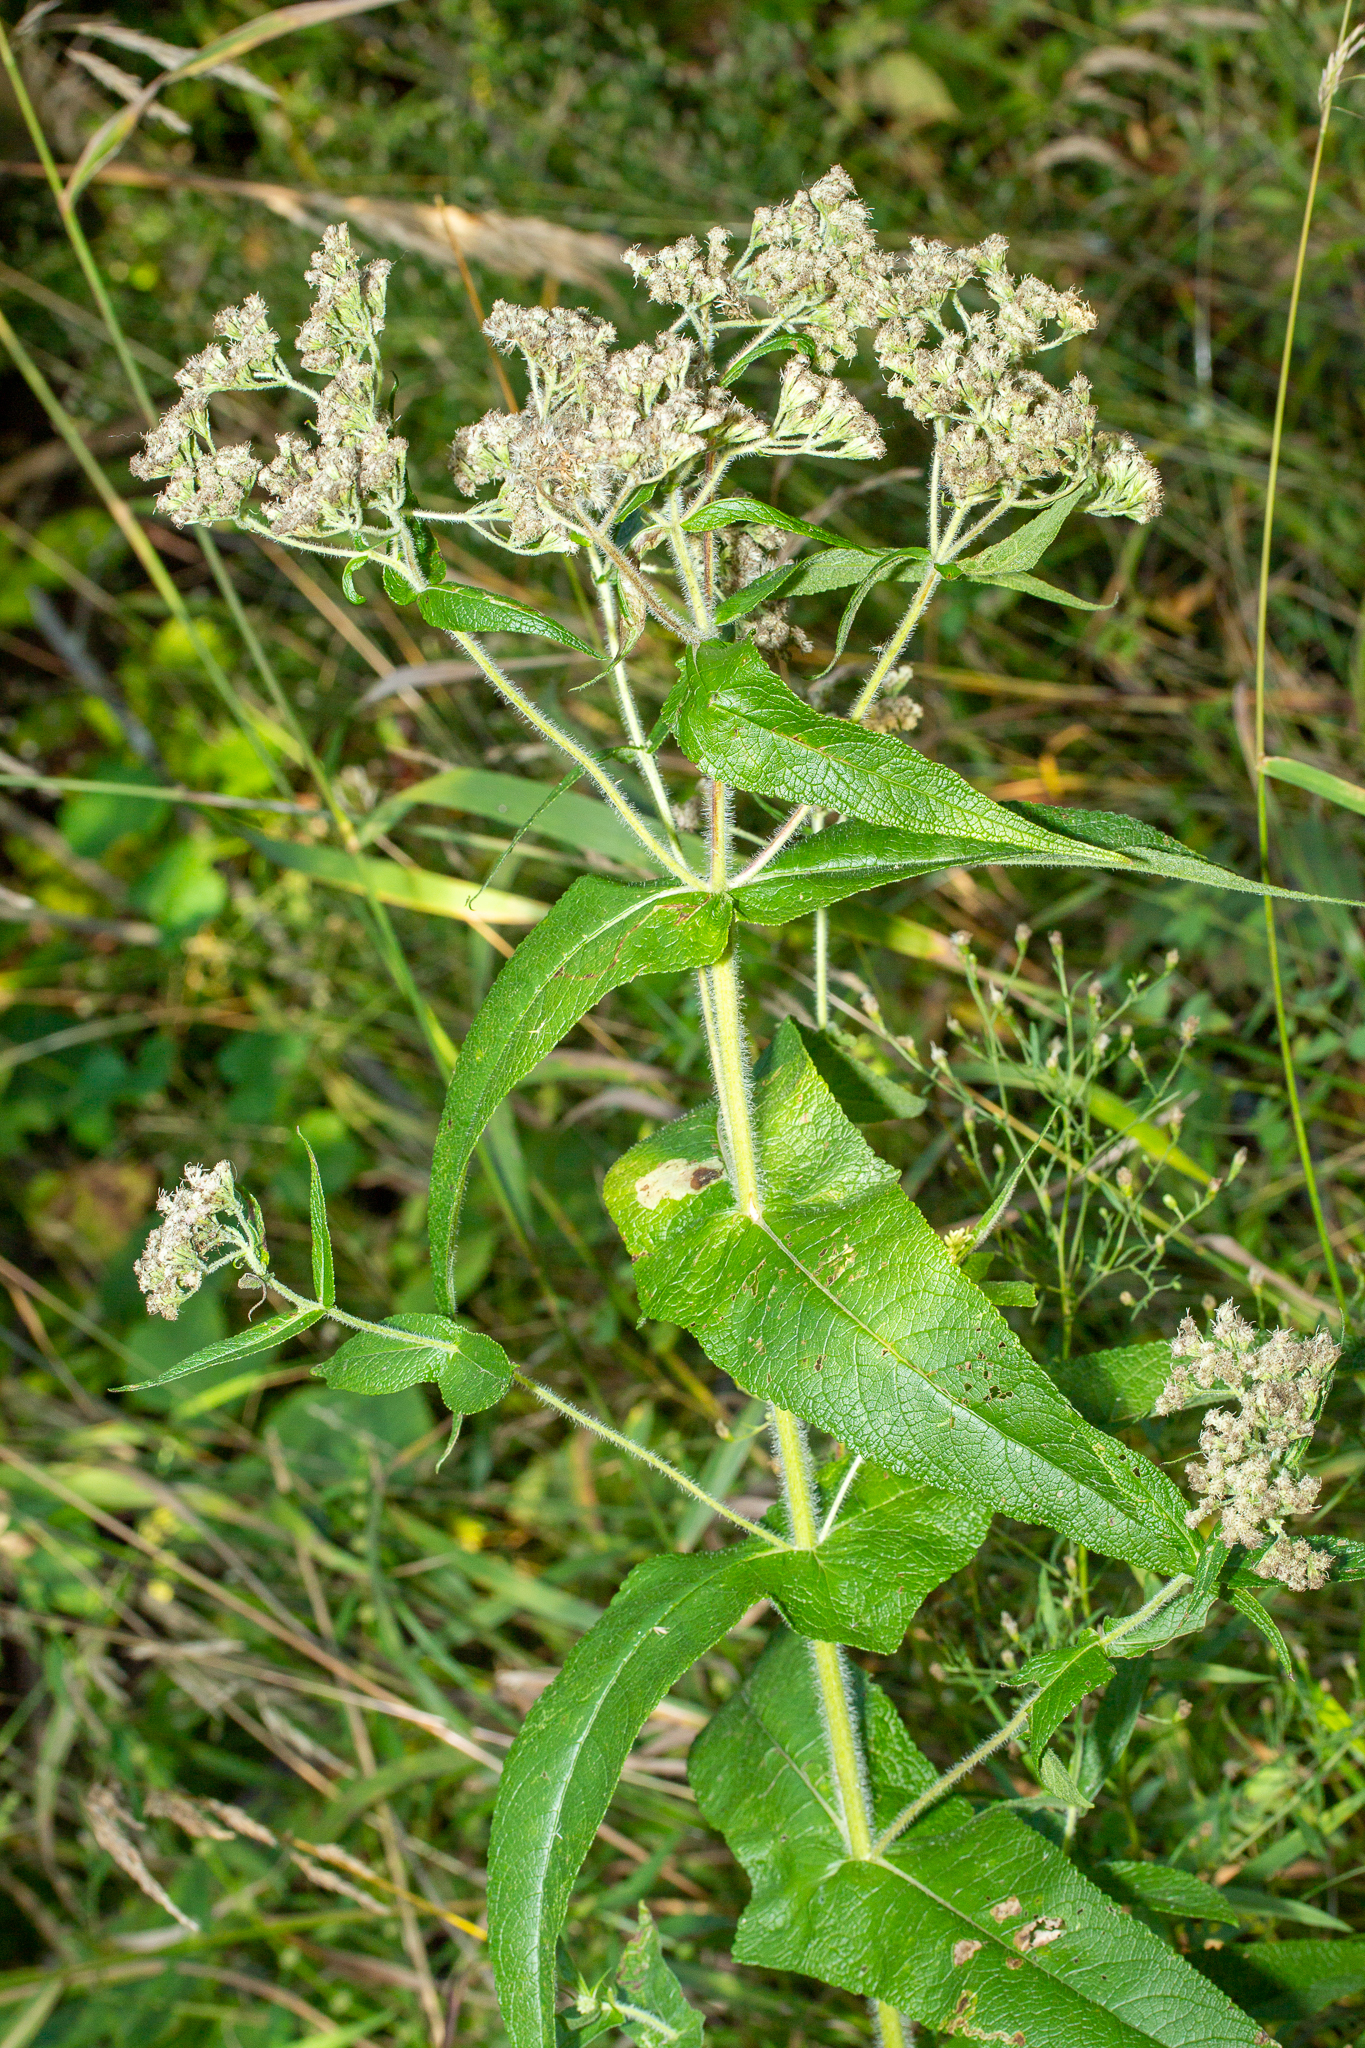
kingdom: Plantae
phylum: Tracheophyta
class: Magnoliopsida
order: Asterales
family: Asteraceae
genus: Eupatorium
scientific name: Eupatorium perfoliatum
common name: Boneset
